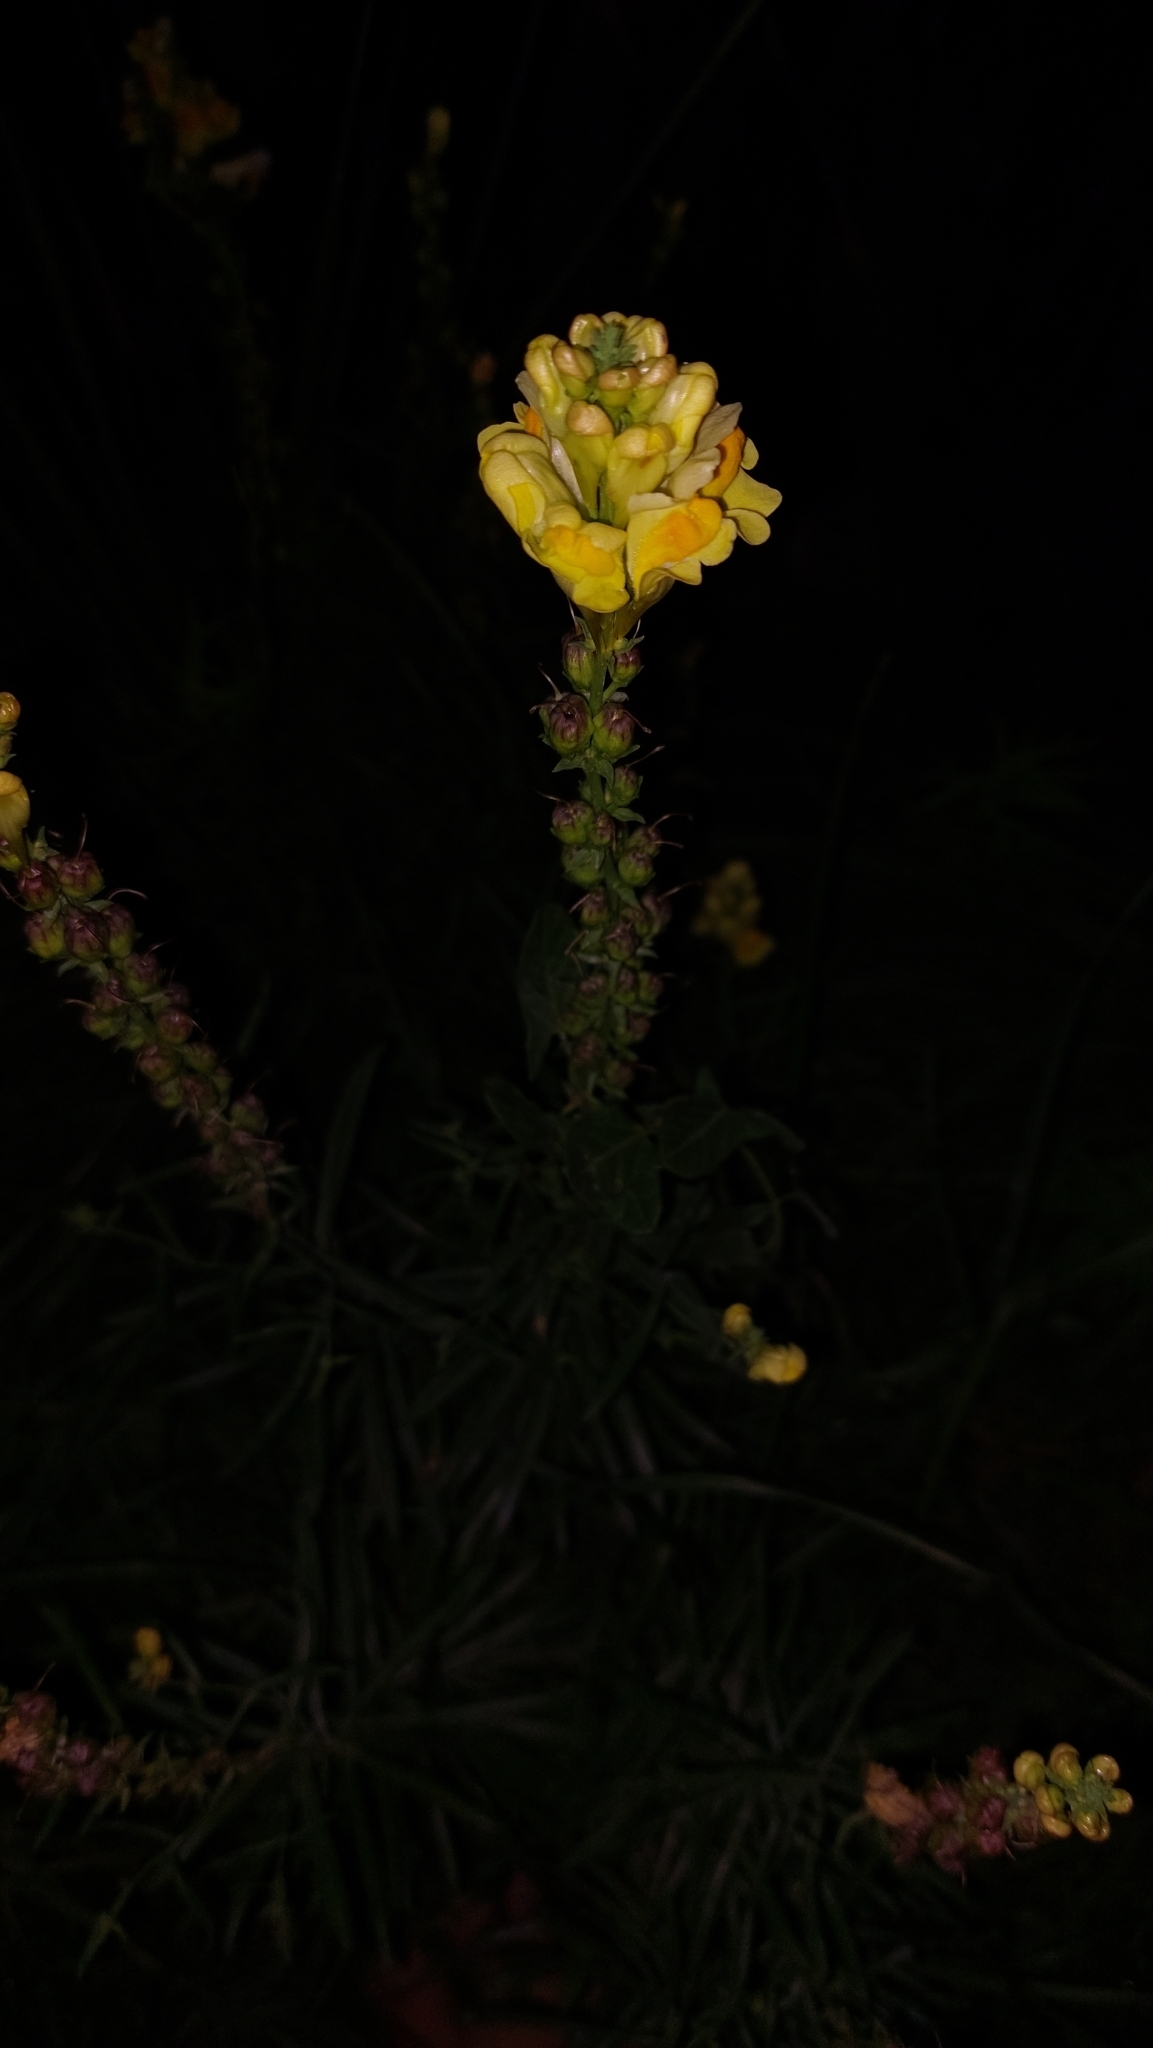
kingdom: Plantae
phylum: Tracheophyta
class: Magnoliopsida
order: Lamiales
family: Plantaginaceae
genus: Linaria
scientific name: Linaria vulgaris
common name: Butter and eggs
